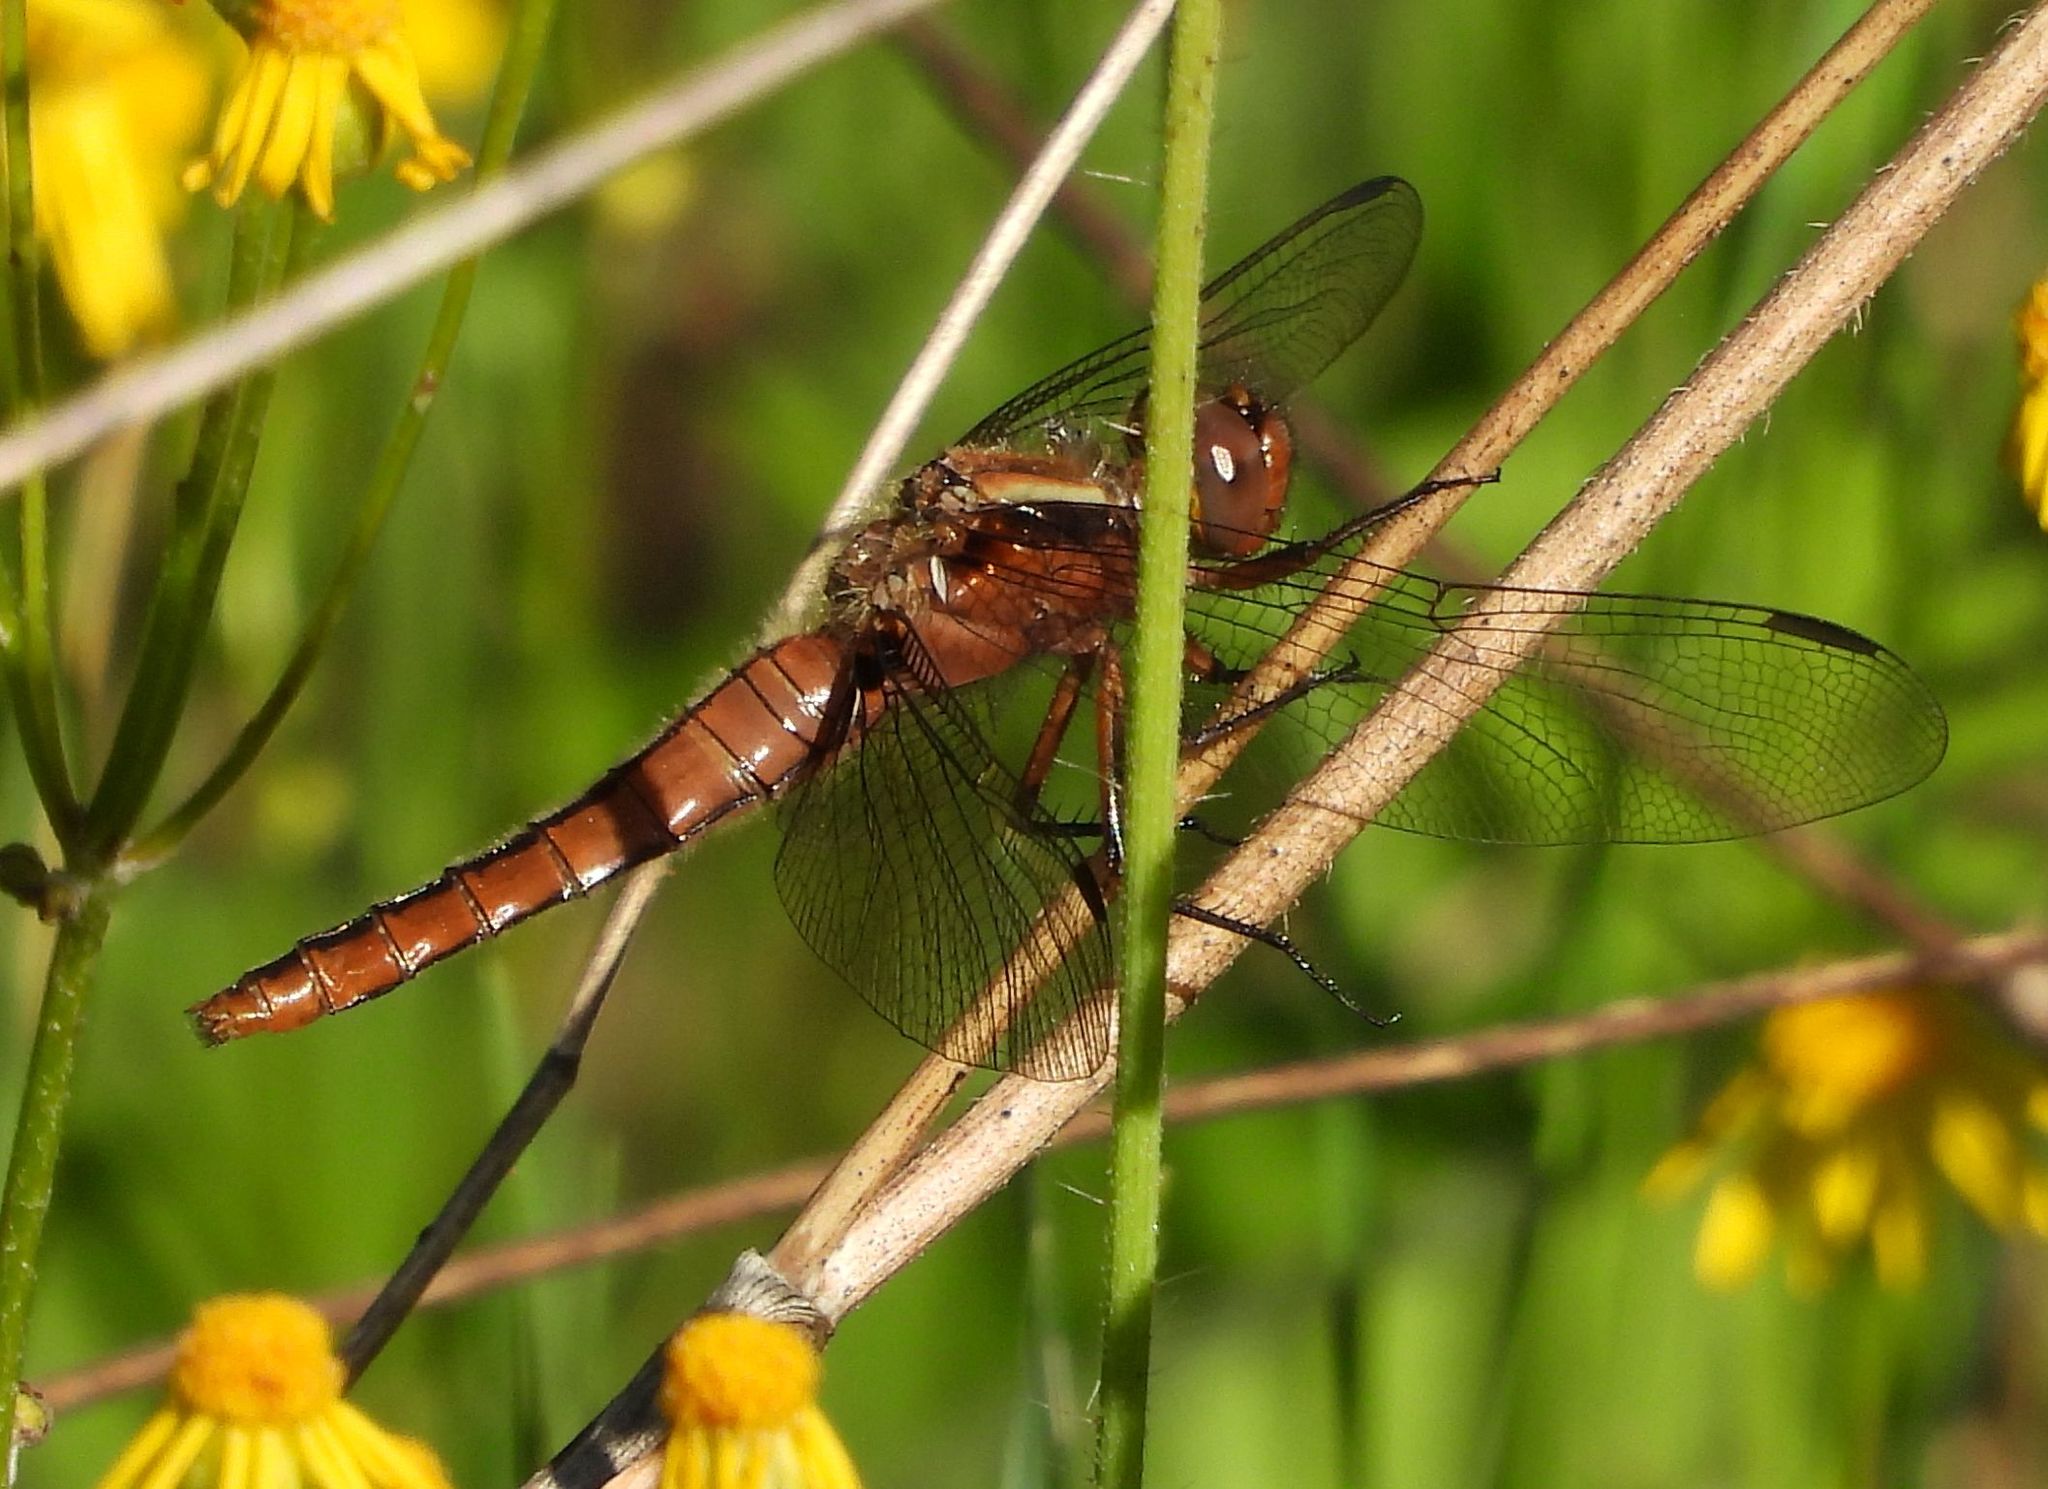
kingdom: Animalia
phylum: Arthropoda
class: Insecta
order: Odonata
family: Libellulidae
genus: Ladona
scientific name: Ladona julia
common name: Chalk-fronted corporal
